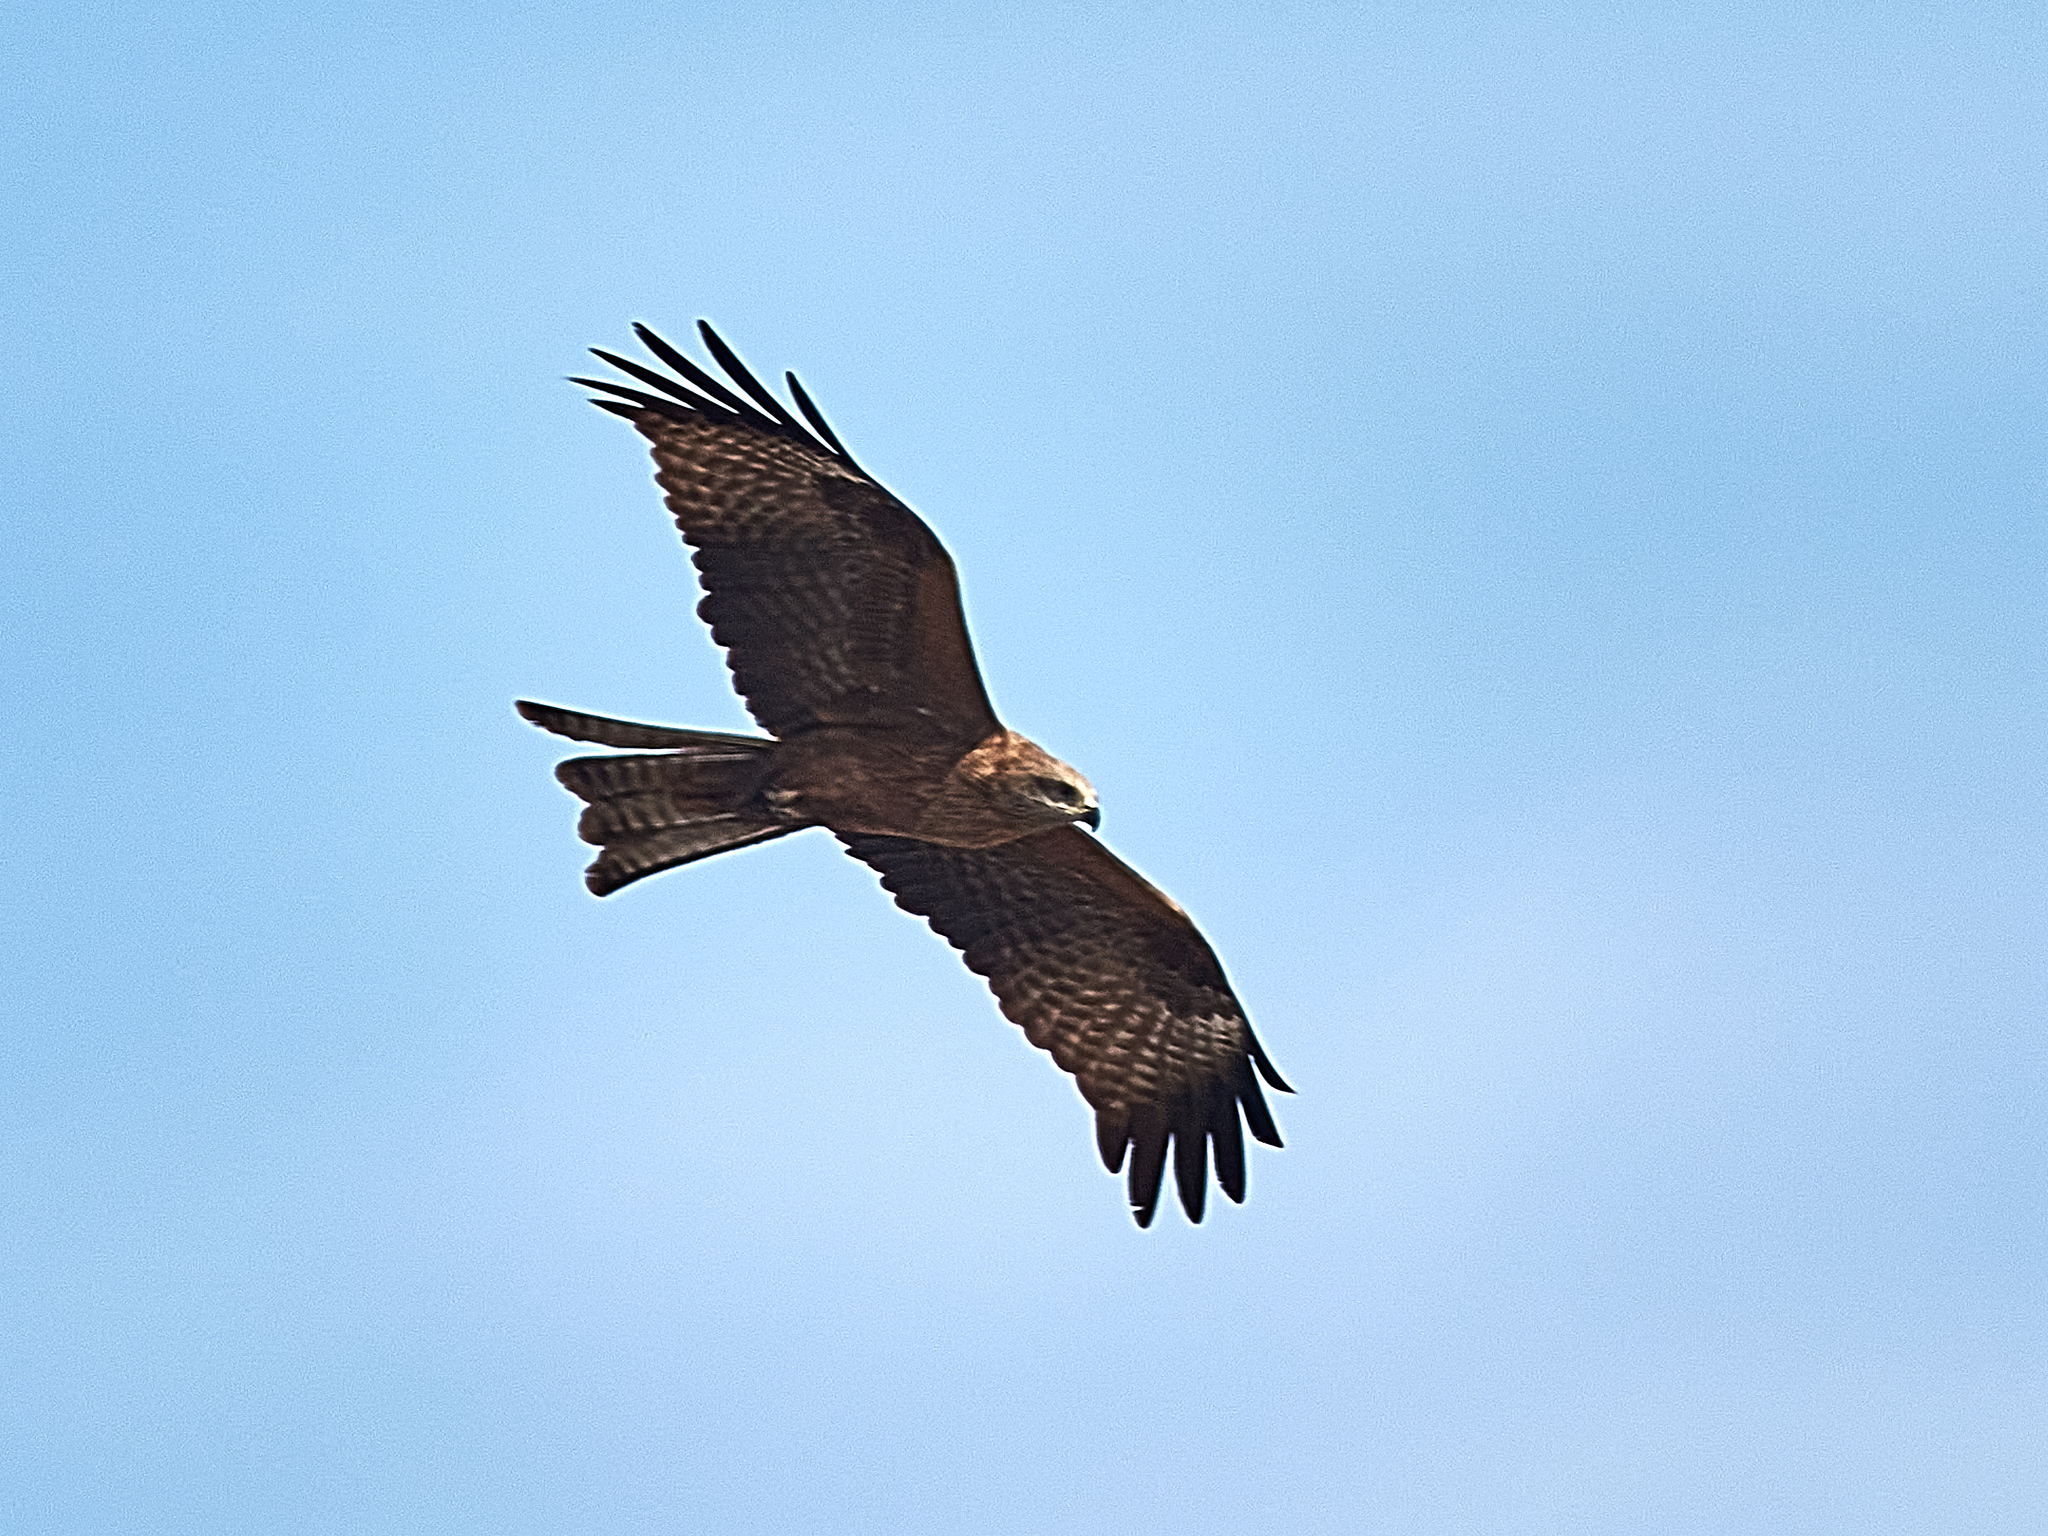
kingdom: Animalia
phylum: Chordata
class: Aves
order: Accipitriformes
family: Accipitridae
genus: Milvus
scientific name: Milvus migrans
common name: Black kite
